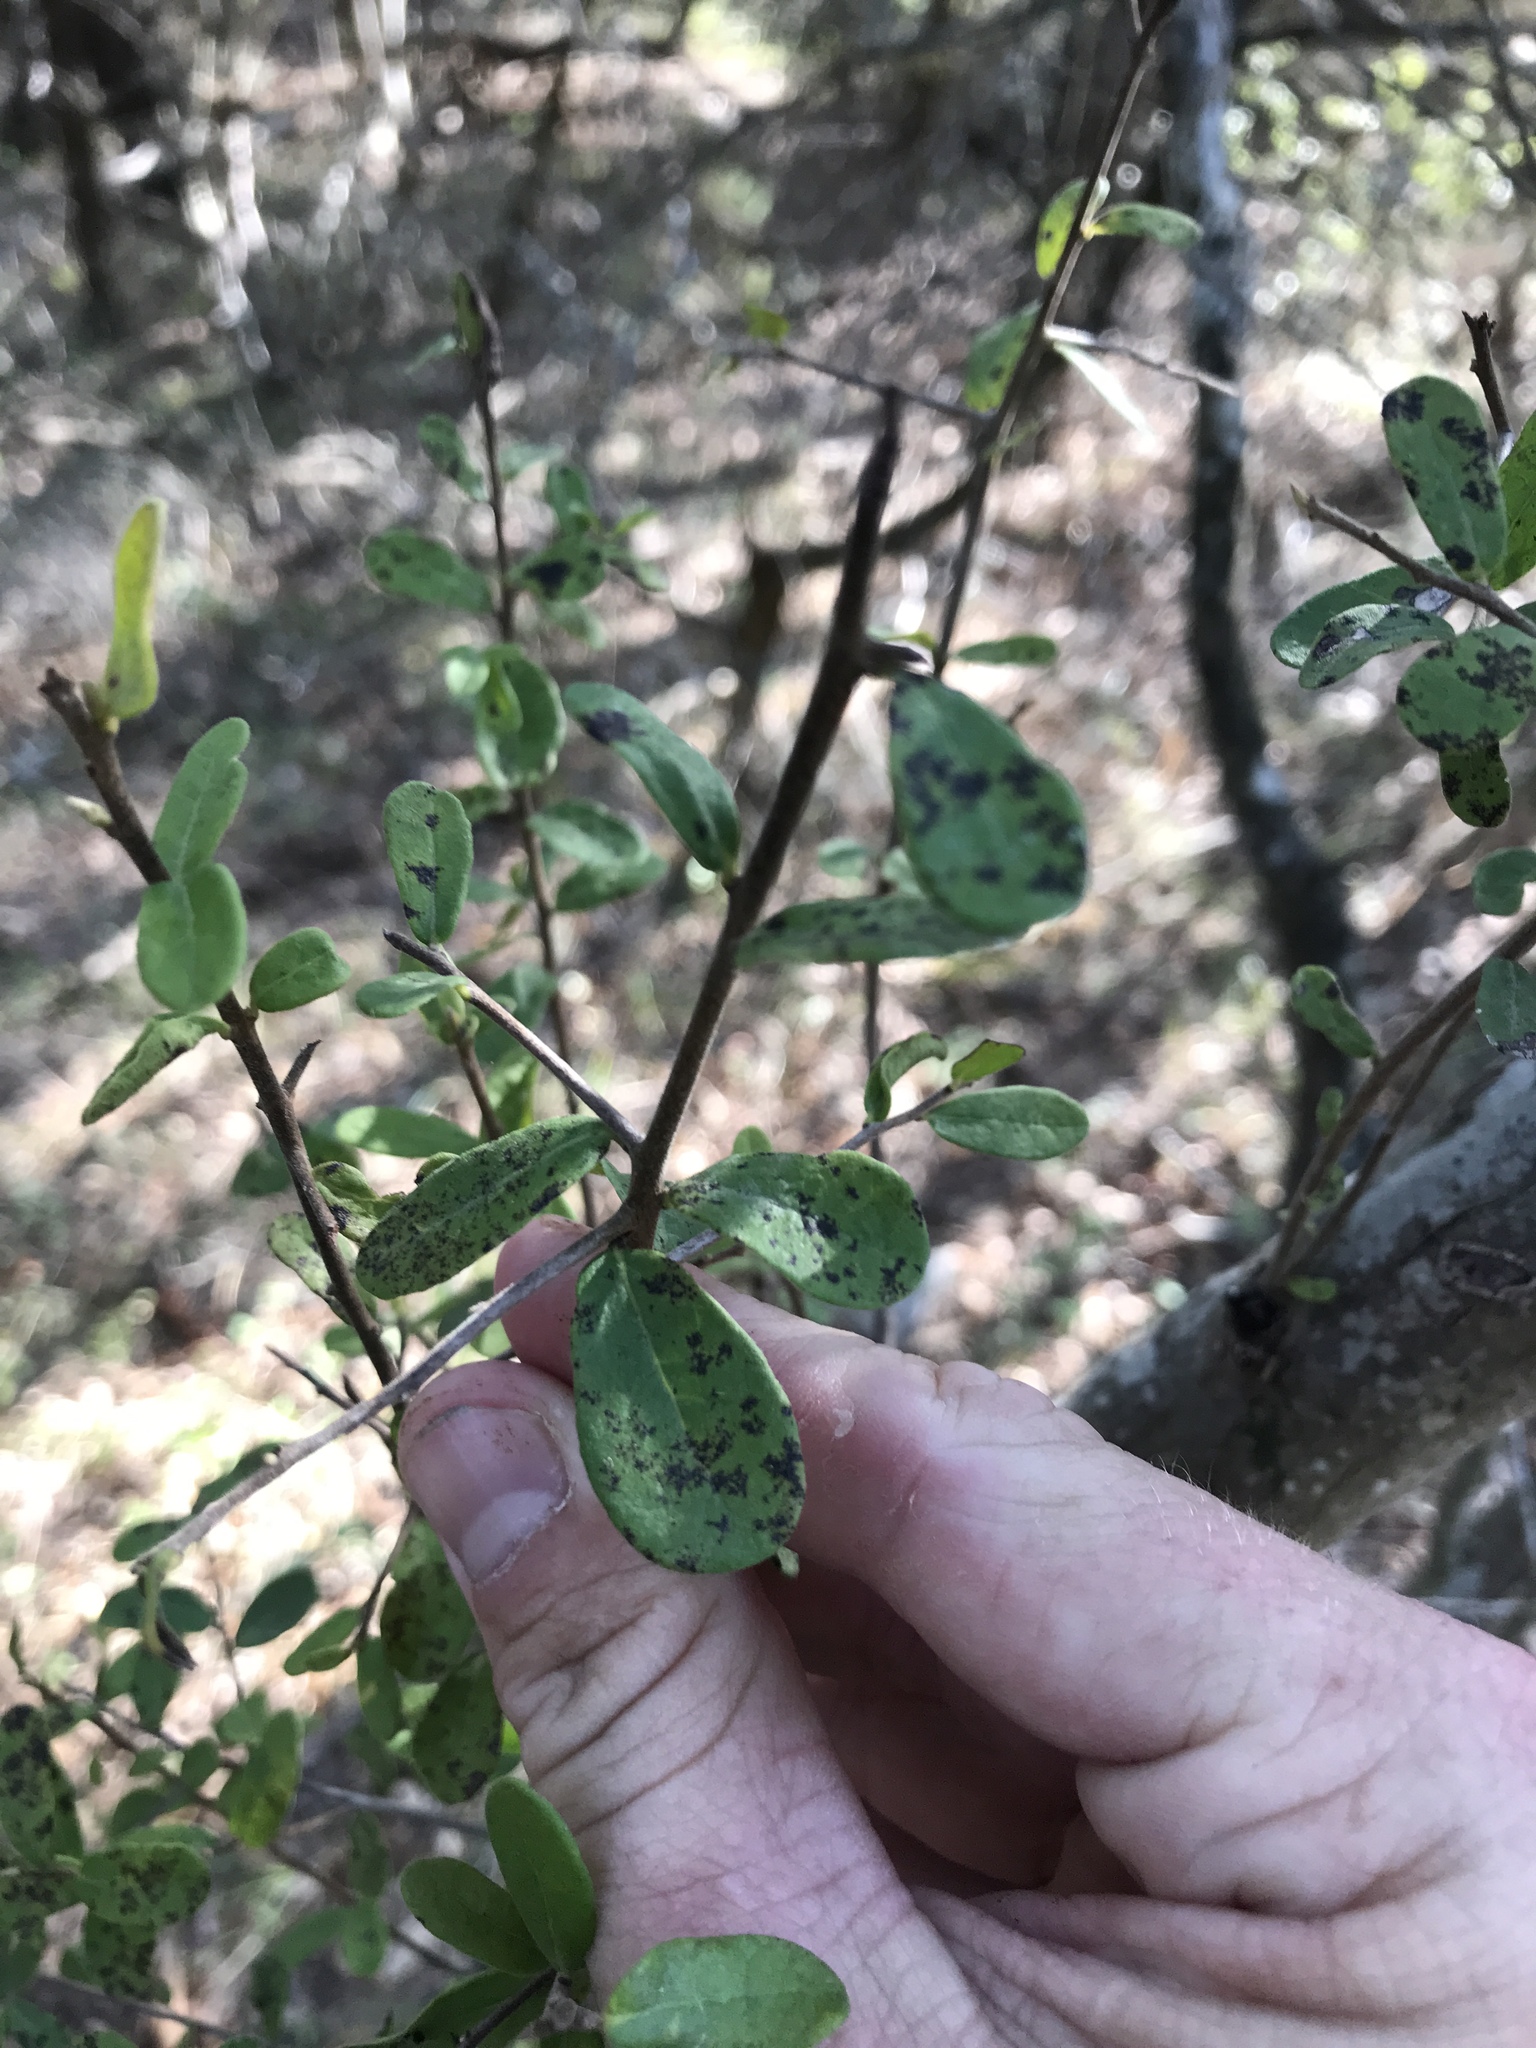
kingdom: Plantae
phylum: Tracheophyta
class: Magnoliopsida
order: Ericales
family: Ebenaceae
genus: Diospyros
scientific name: Diospyros texana
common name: Texas persimmon
